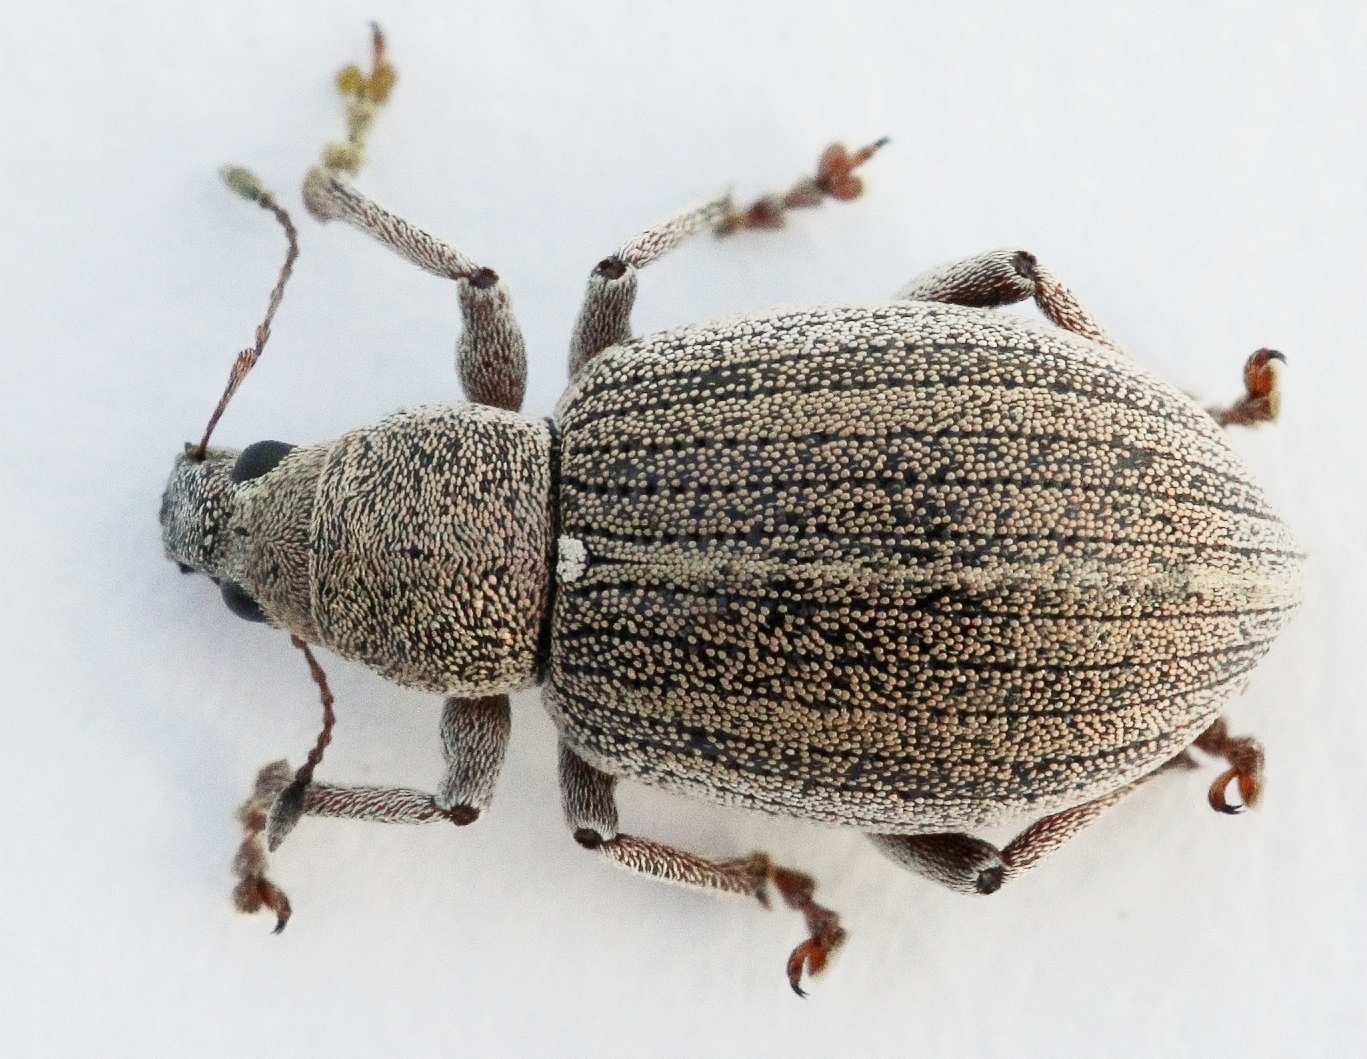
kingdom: Animalia
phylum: Arthropoda
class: Insecta
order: Coleoptera
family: Curculionidae
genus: Sciaphobus
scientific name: Sciaphobus squalidus
